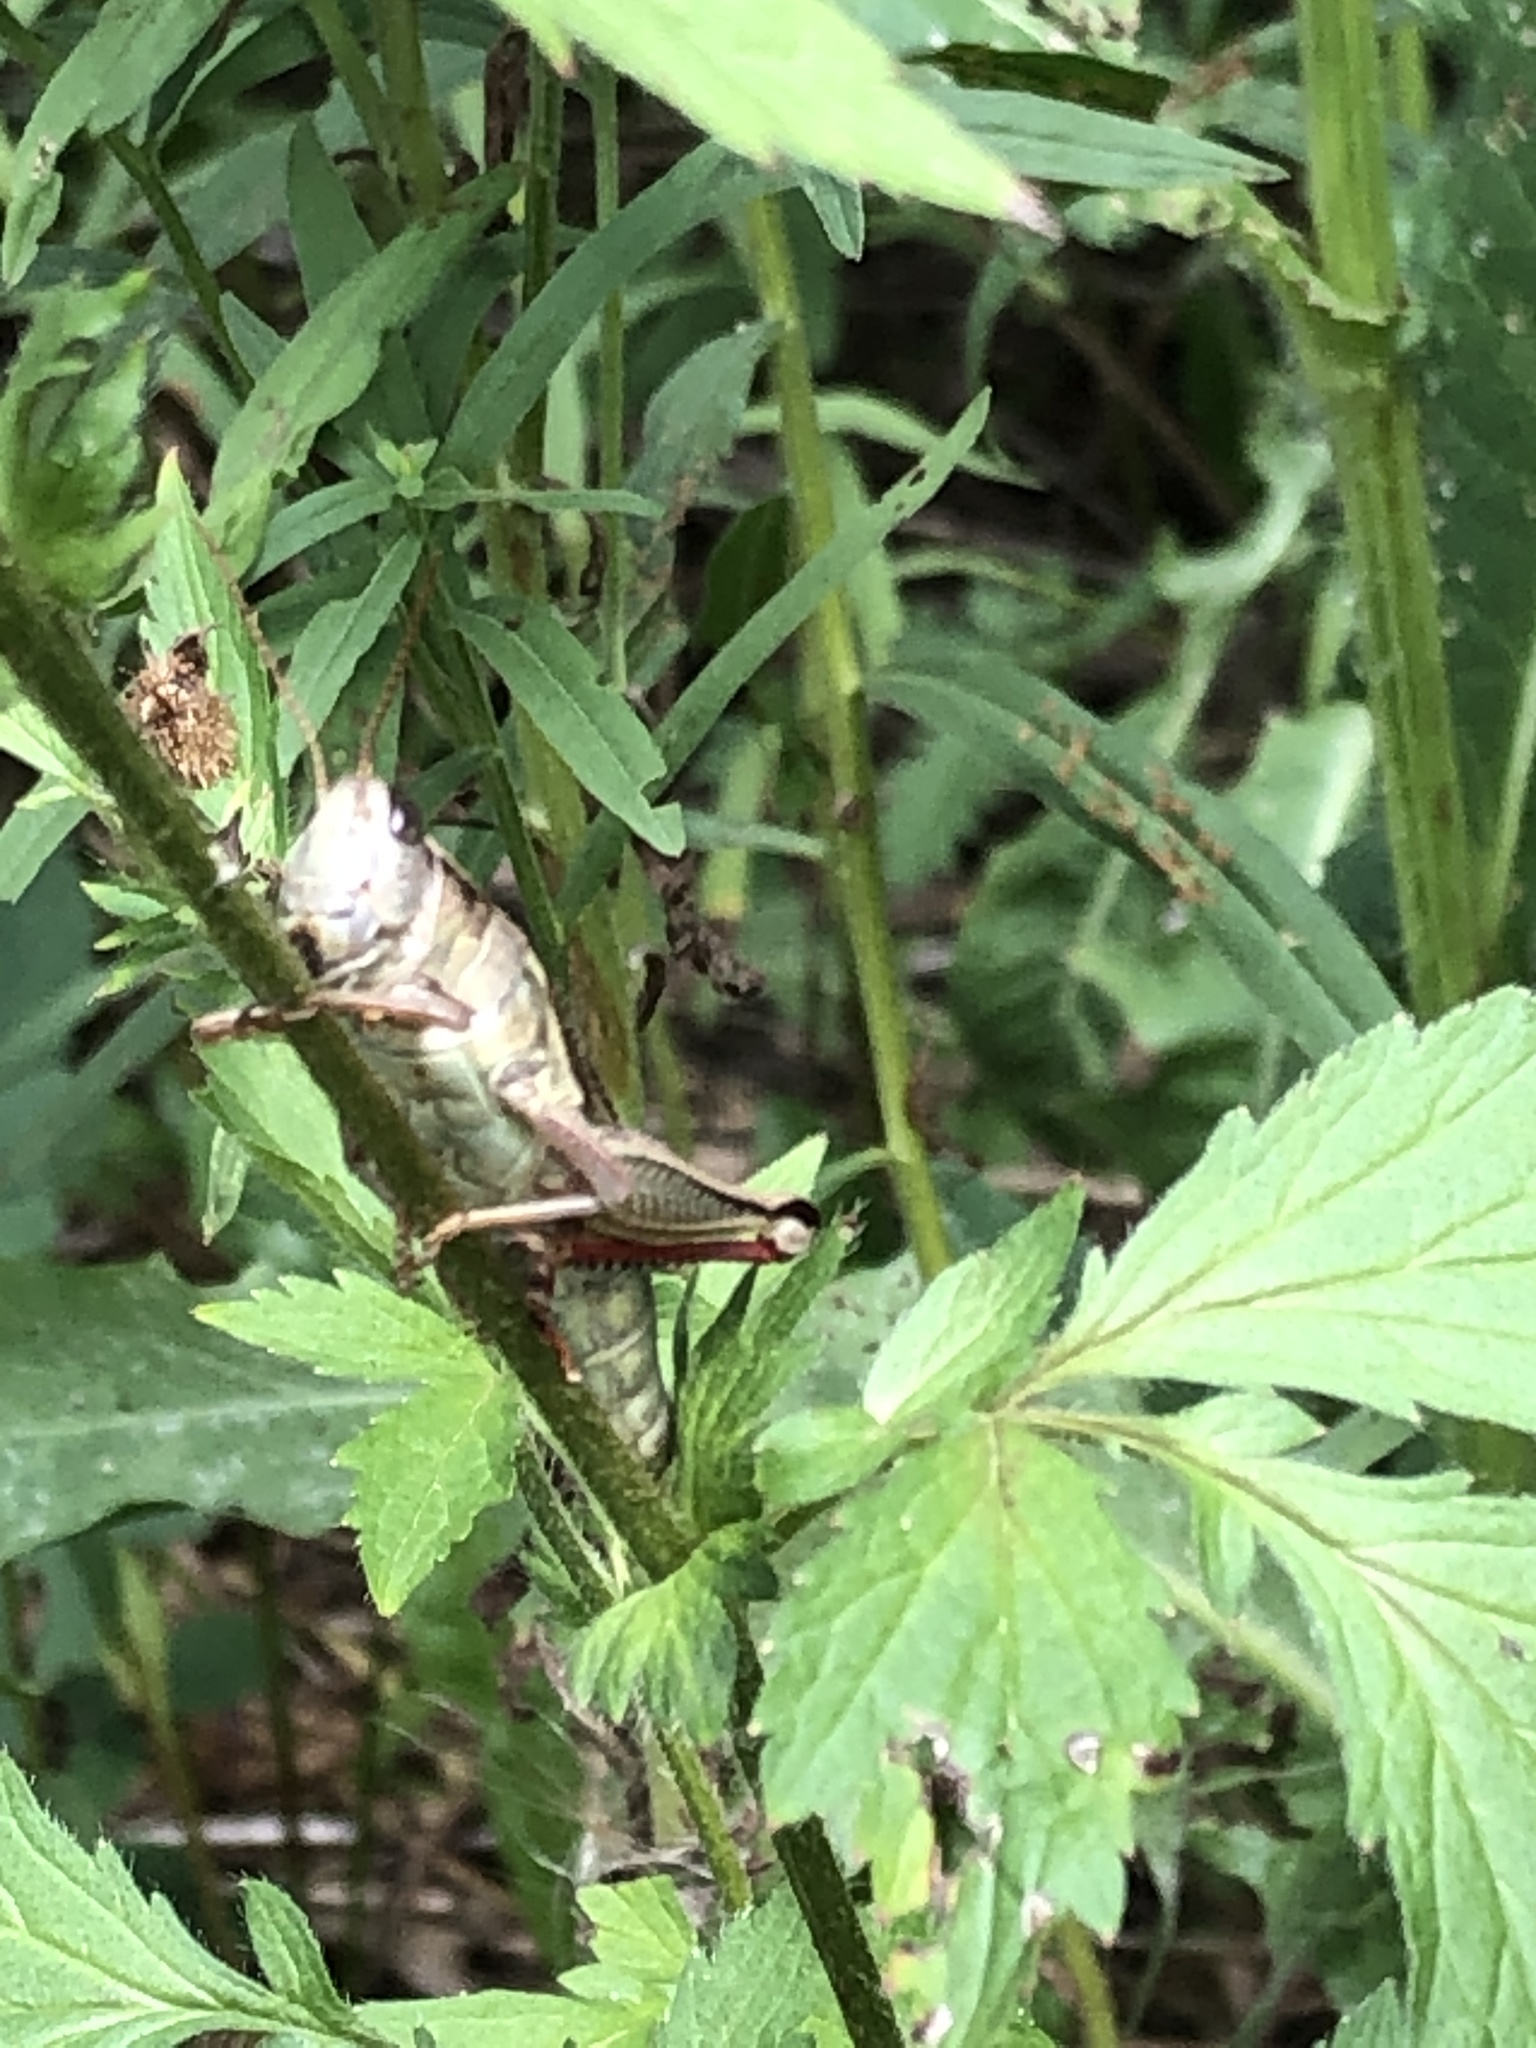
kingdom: Animalia
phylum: Arthropoda
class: Insecta
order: Orthoptera
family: Acrididae
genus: Melanoplus
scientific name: Melanoplus bivittatus
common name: Two-striped grasshopper
